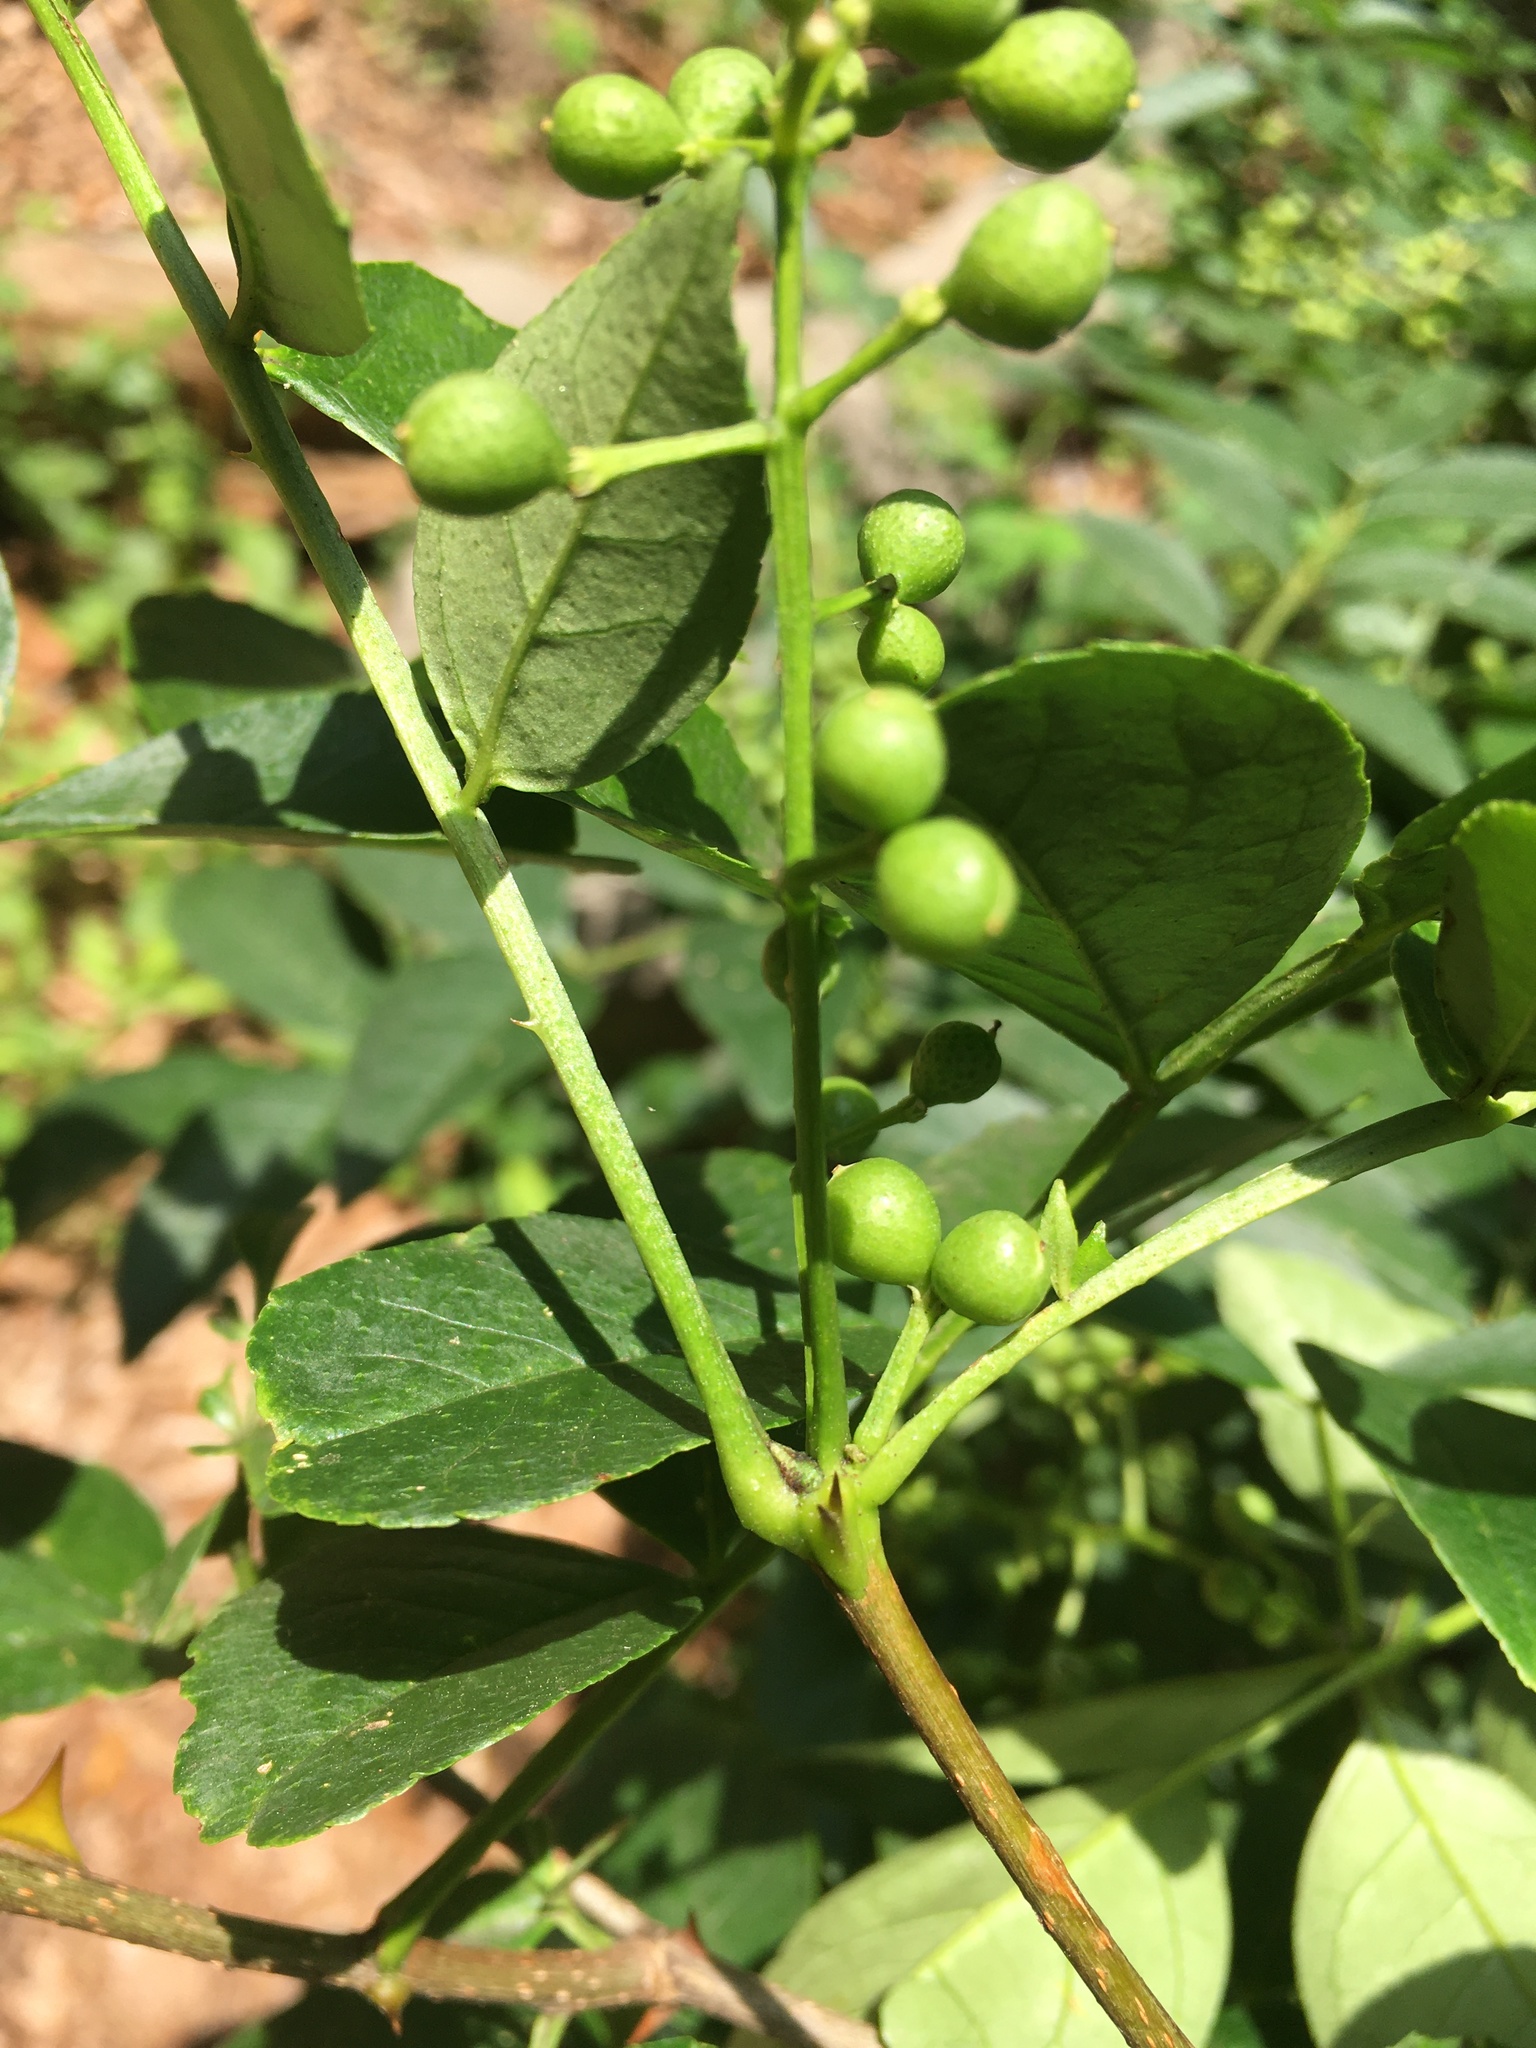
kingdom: Plantae
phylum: Tracheophyta
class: Magnoliopsida
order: Sapindales
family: Rutaceae
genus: Zanthoxylum
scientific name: Zanthoxylum simulans
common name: Chinese-pepper
